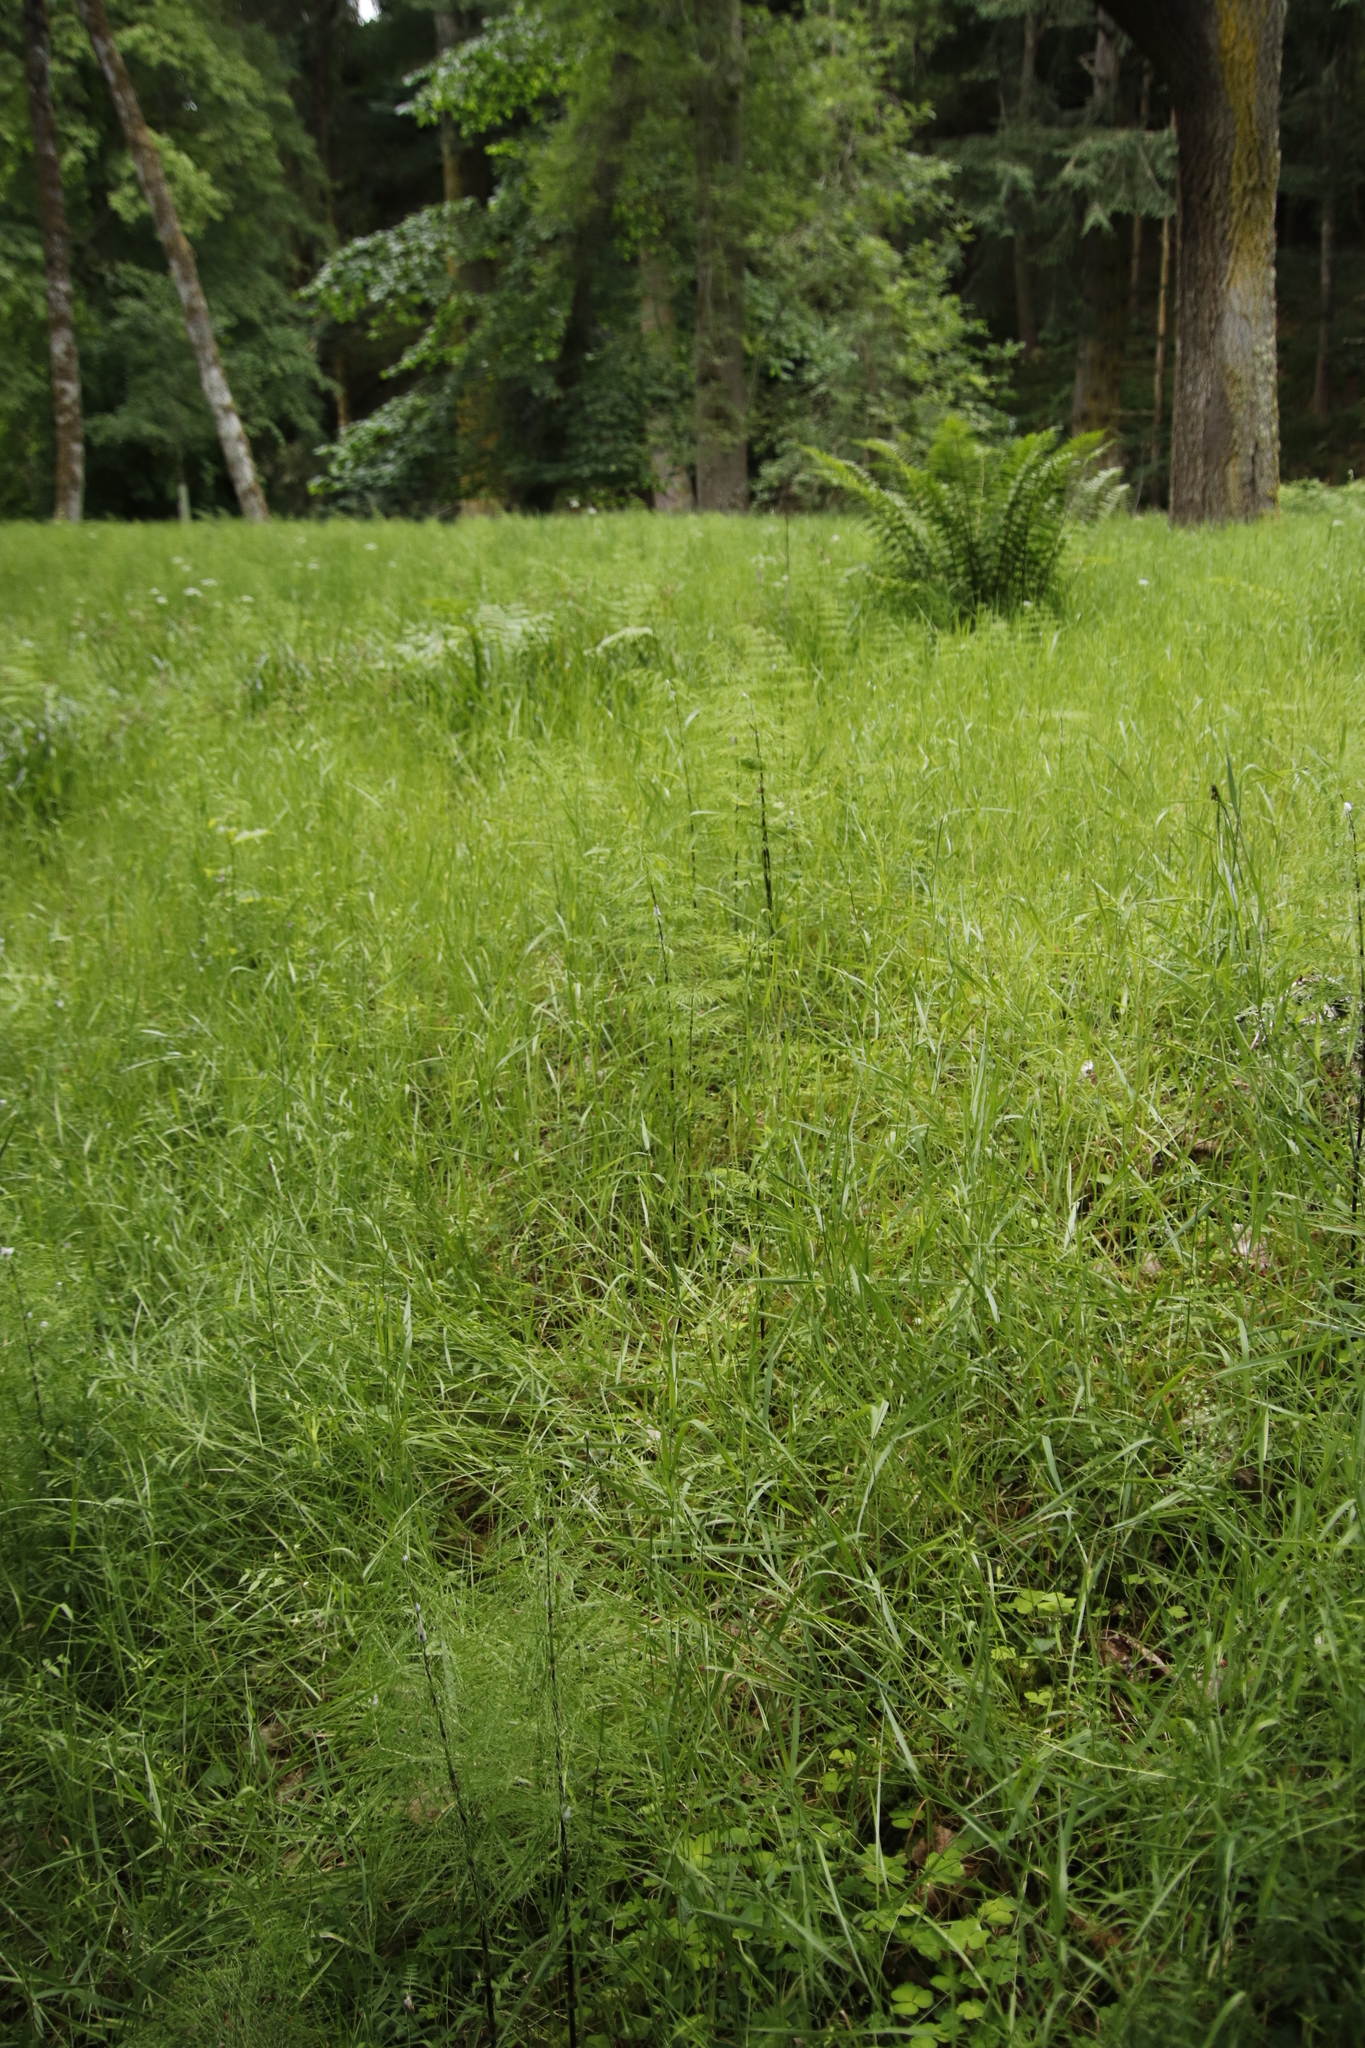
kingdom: Plantae
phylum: Tracheophyta
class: Polypodiopsida
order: Equisetales
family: Equisetaceae
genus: Equisetum
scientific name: Equisetum sylvaticum
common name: Wood horsetail
